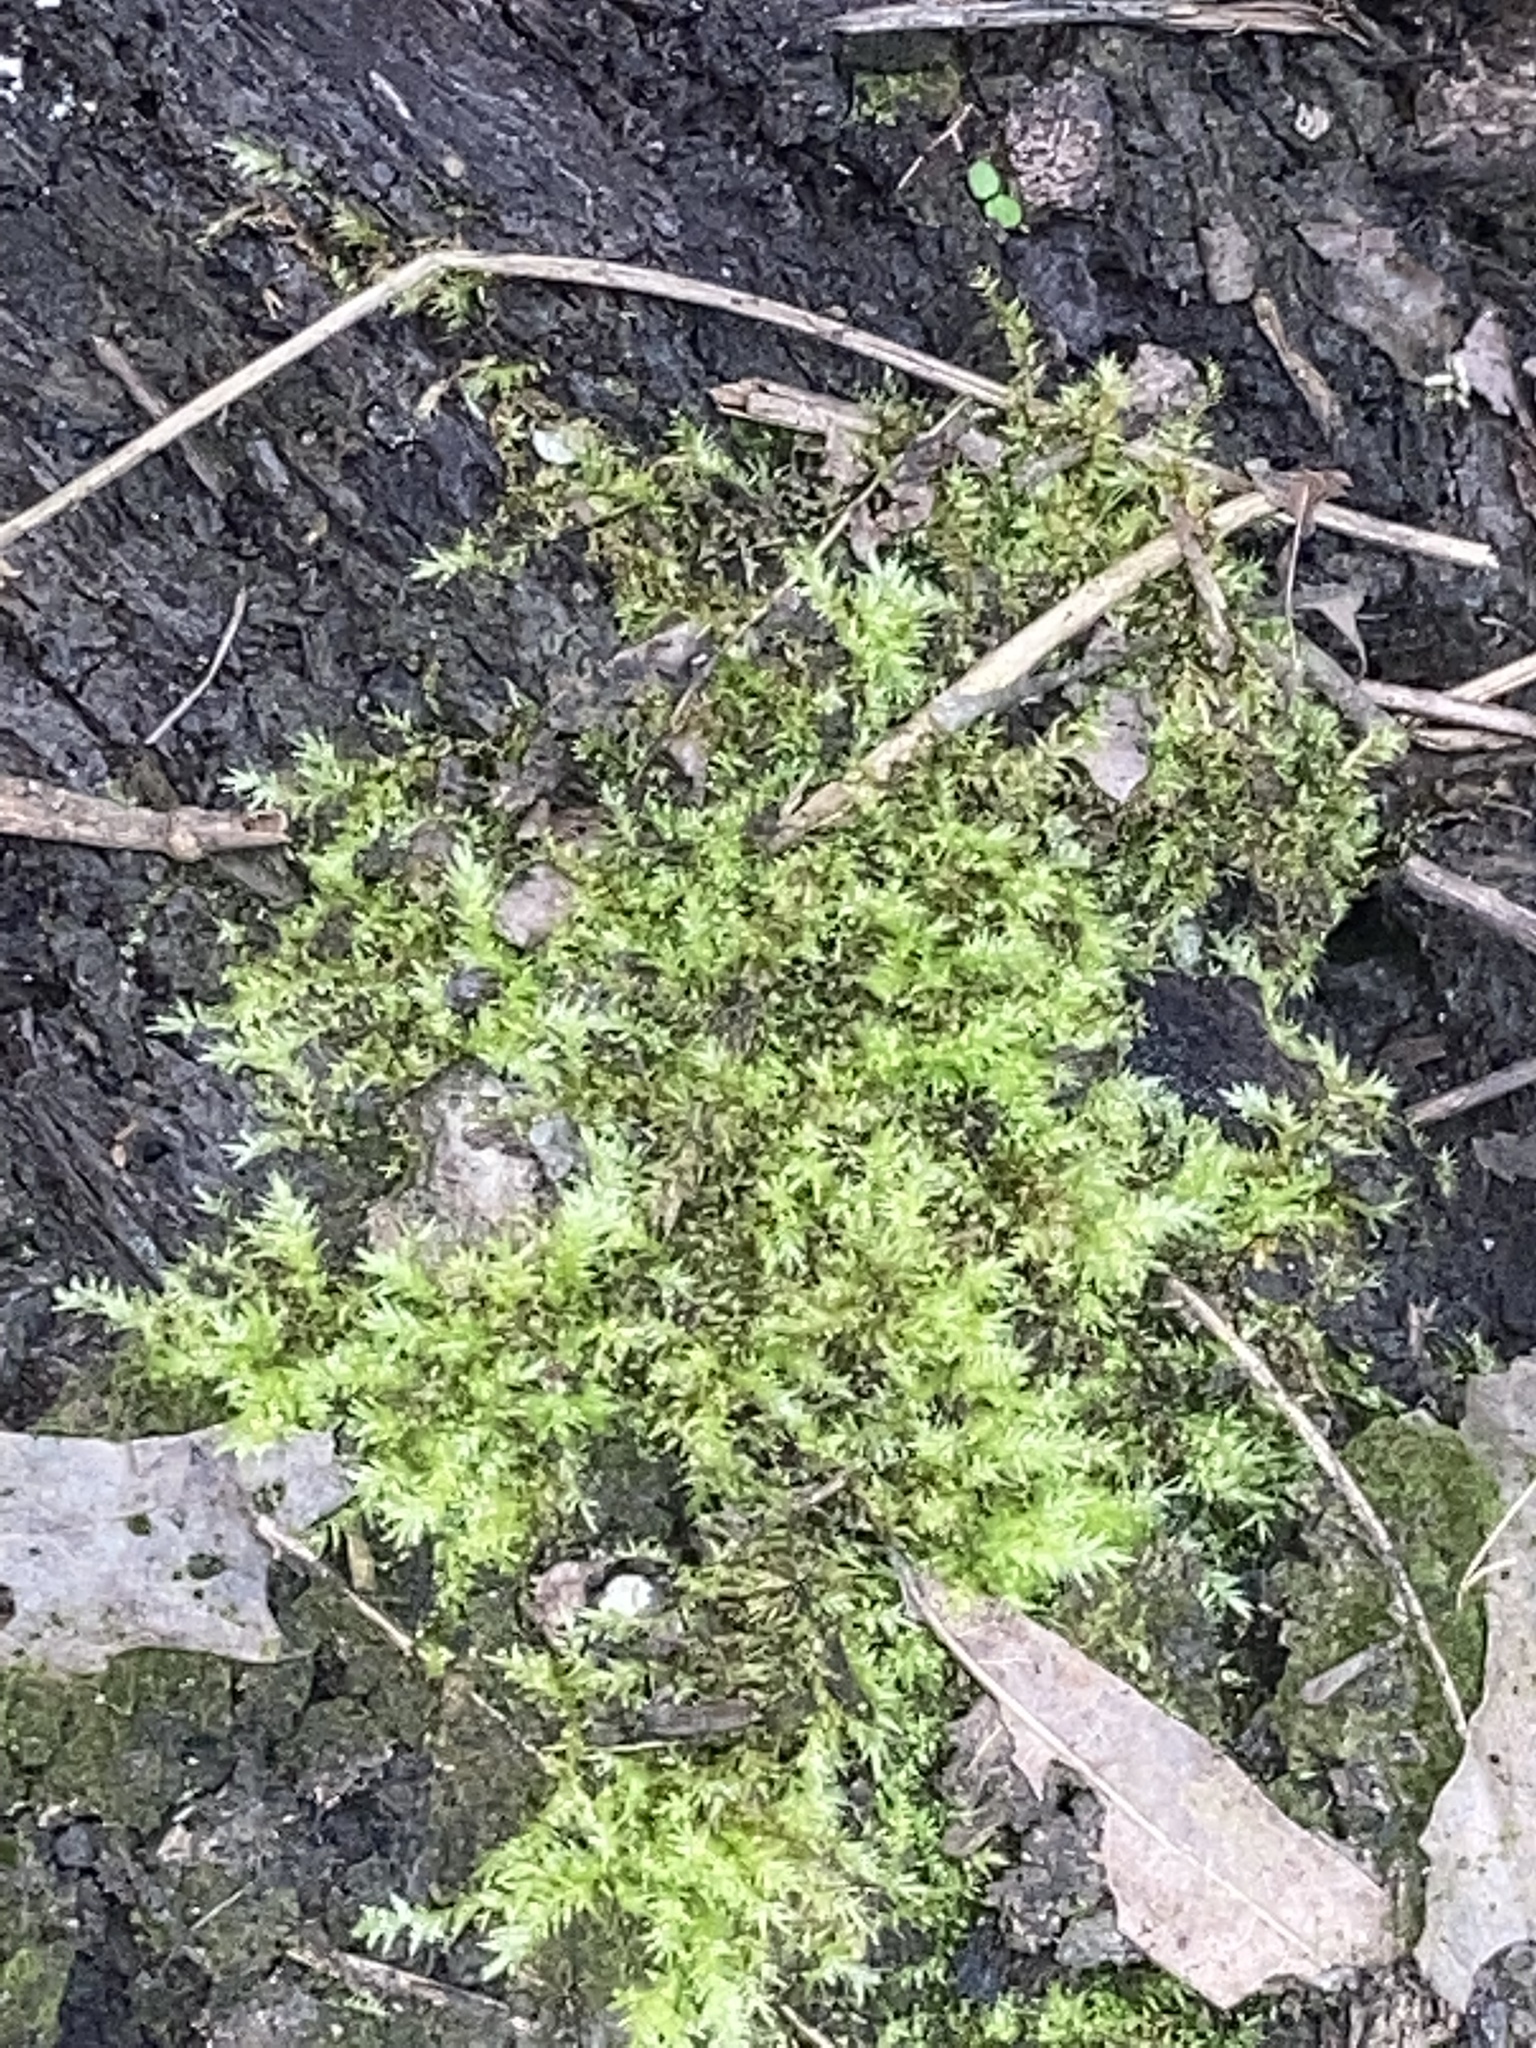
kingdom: Plantae
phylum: Bryophyta
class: Bryopsida
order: Hypnales
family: Brachytheciaceae
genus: Oxyrrhynchium
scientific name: Oxyrrhynchium hians
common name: Spreading beaked moss
